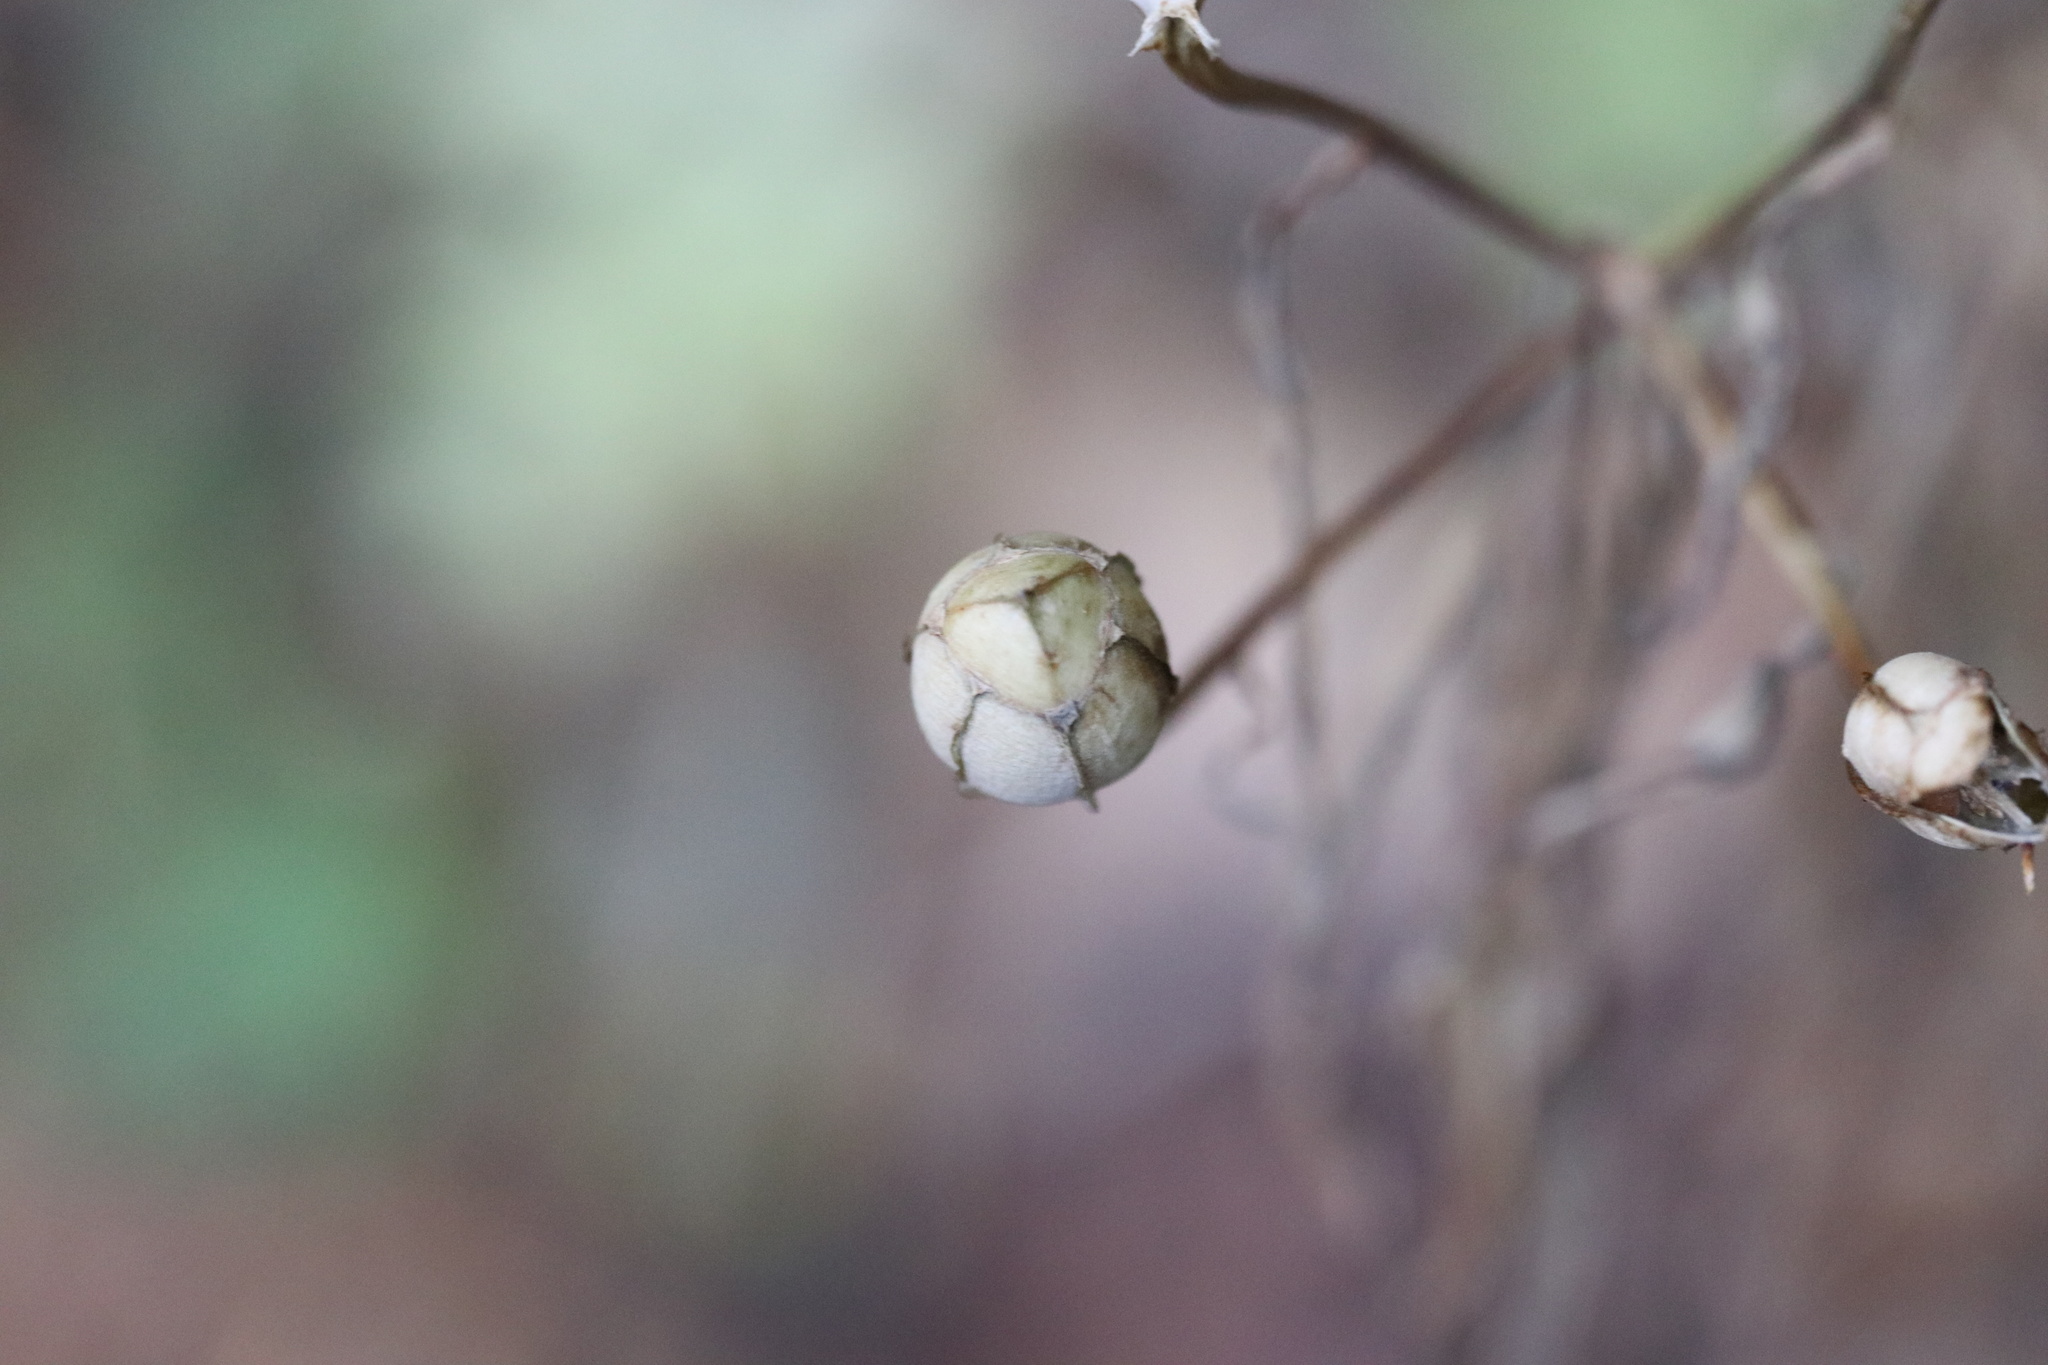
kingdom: Plantae
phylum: Tracheophyta
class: Liliopsida
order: Liliales
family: Alstroemeriaceae
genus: Alstroemeria
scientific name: Alstroemeria aurea
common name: Peruvian lily
